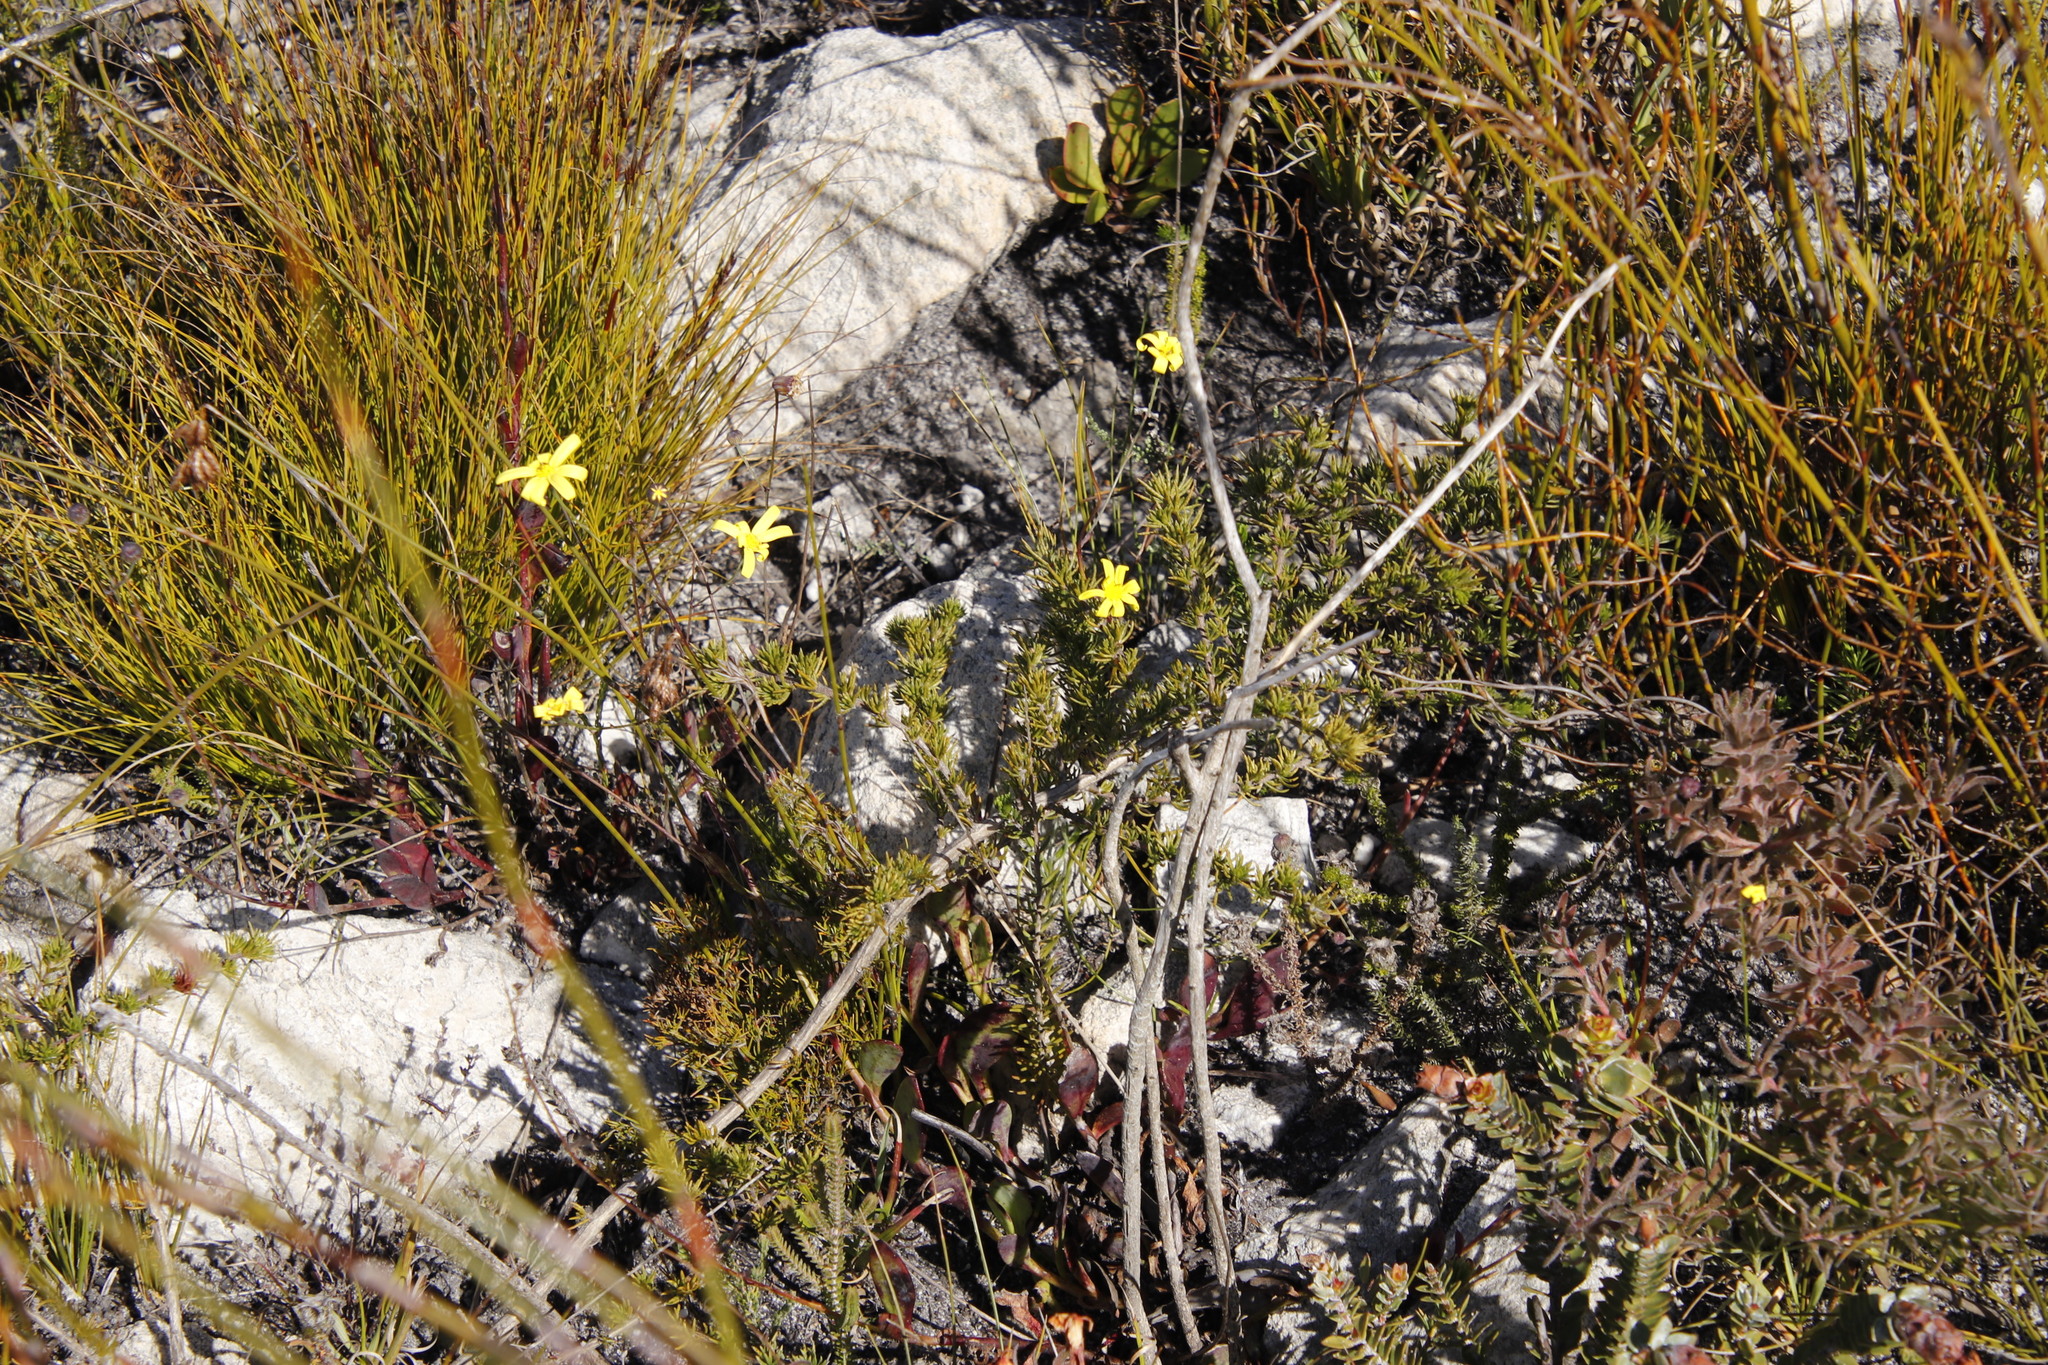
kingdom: Plantae
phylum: Tracheophyta
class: Magnoliopsida
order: Asterales
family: Asteraceae
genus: Othonna
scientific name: Othonna multicaulis
